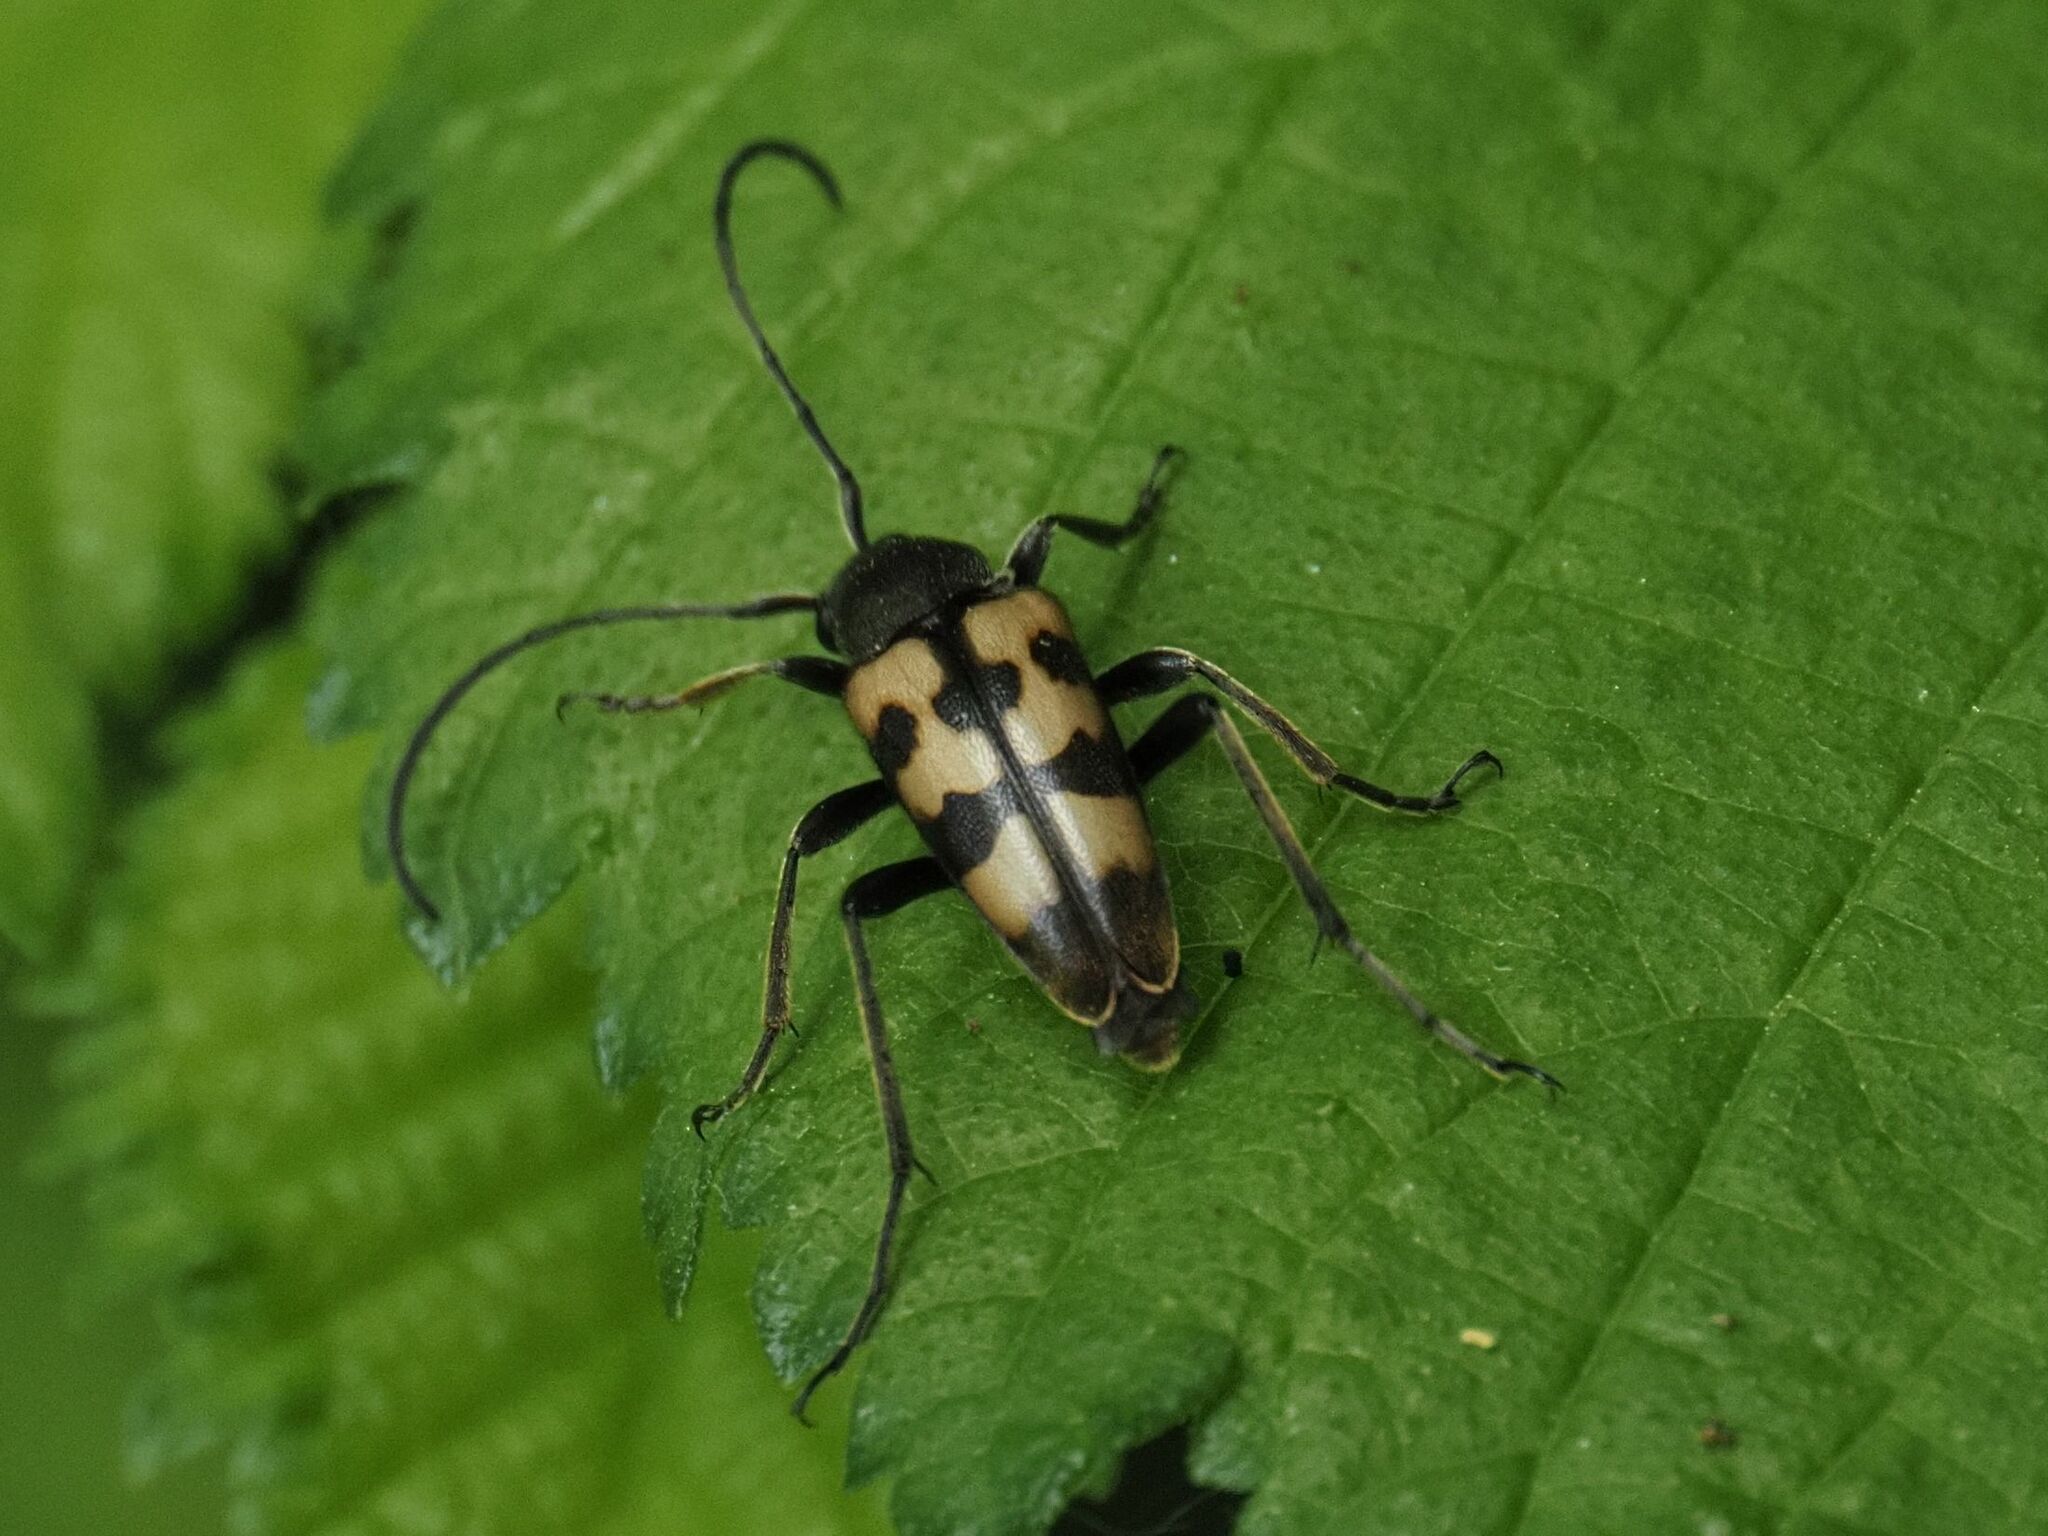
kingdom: Animalia
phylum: Arthropoda
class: Insecta
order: Coleoptera
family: Cerambycidae
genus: Pachytodes
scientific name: Pachytodes
